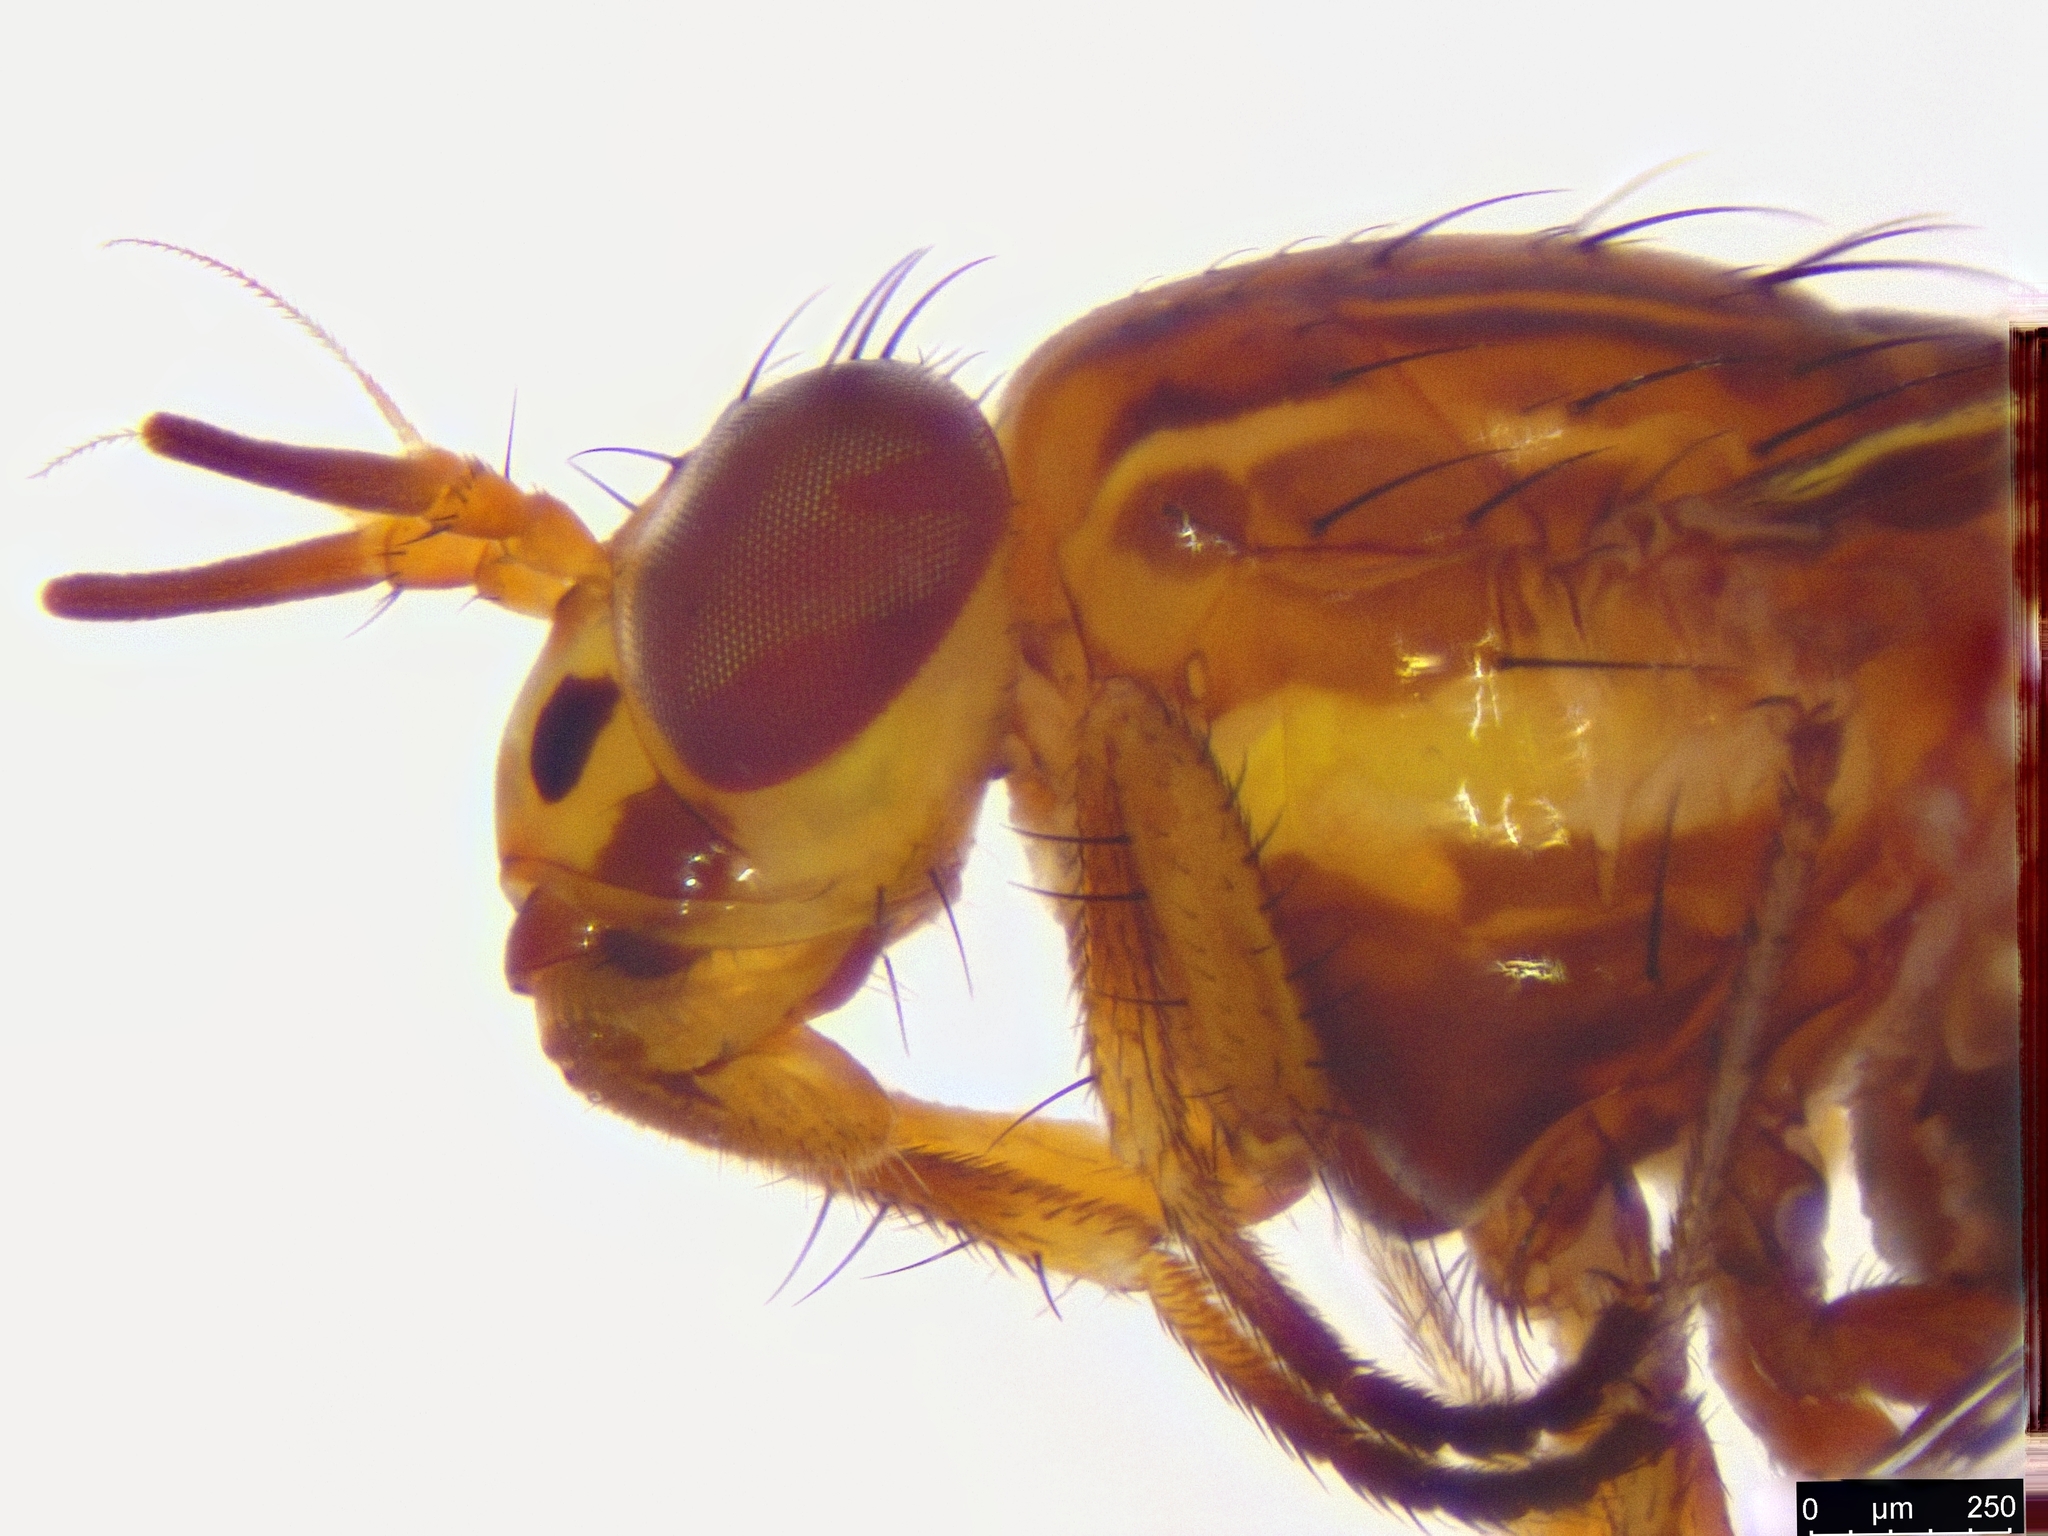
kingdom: Animalia
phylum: Arthropoda
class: Insecta
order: Diptera
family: Lauxaniidae
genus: Steganopsis
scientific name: Steganopsis melanogaster
